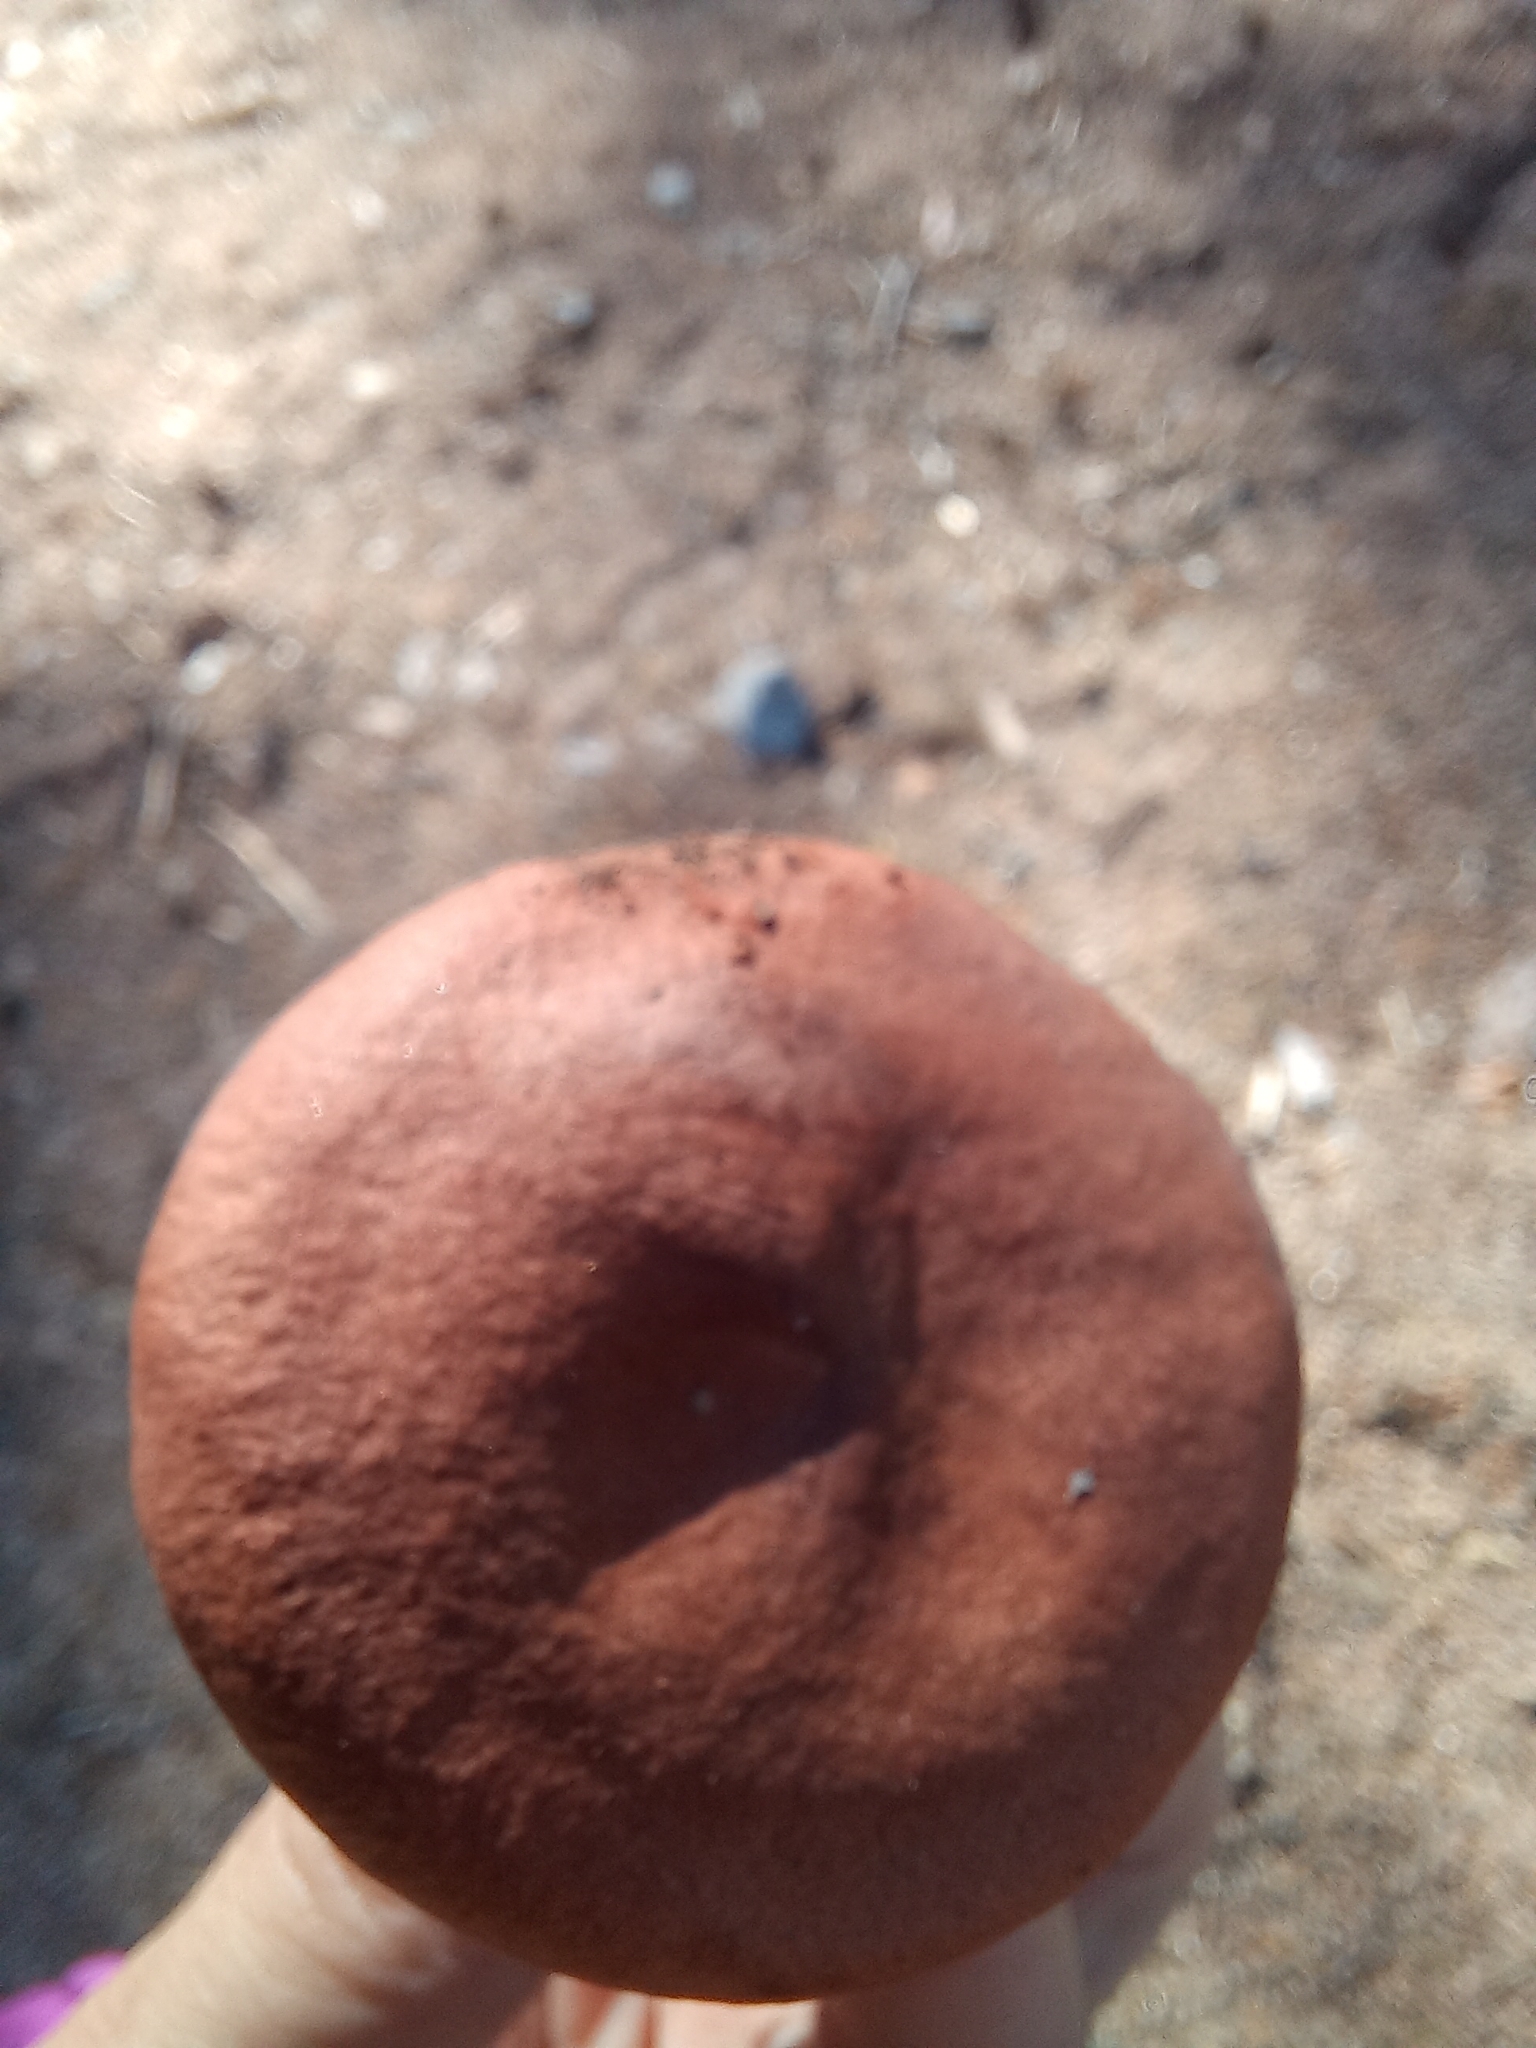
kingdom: Fungi
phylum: Basidiomycota
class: Agaricomycetes
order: Russulales
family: Russulaceae
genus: Lactarius
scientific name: Lactarius rufus
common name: Rufous milk-cap
